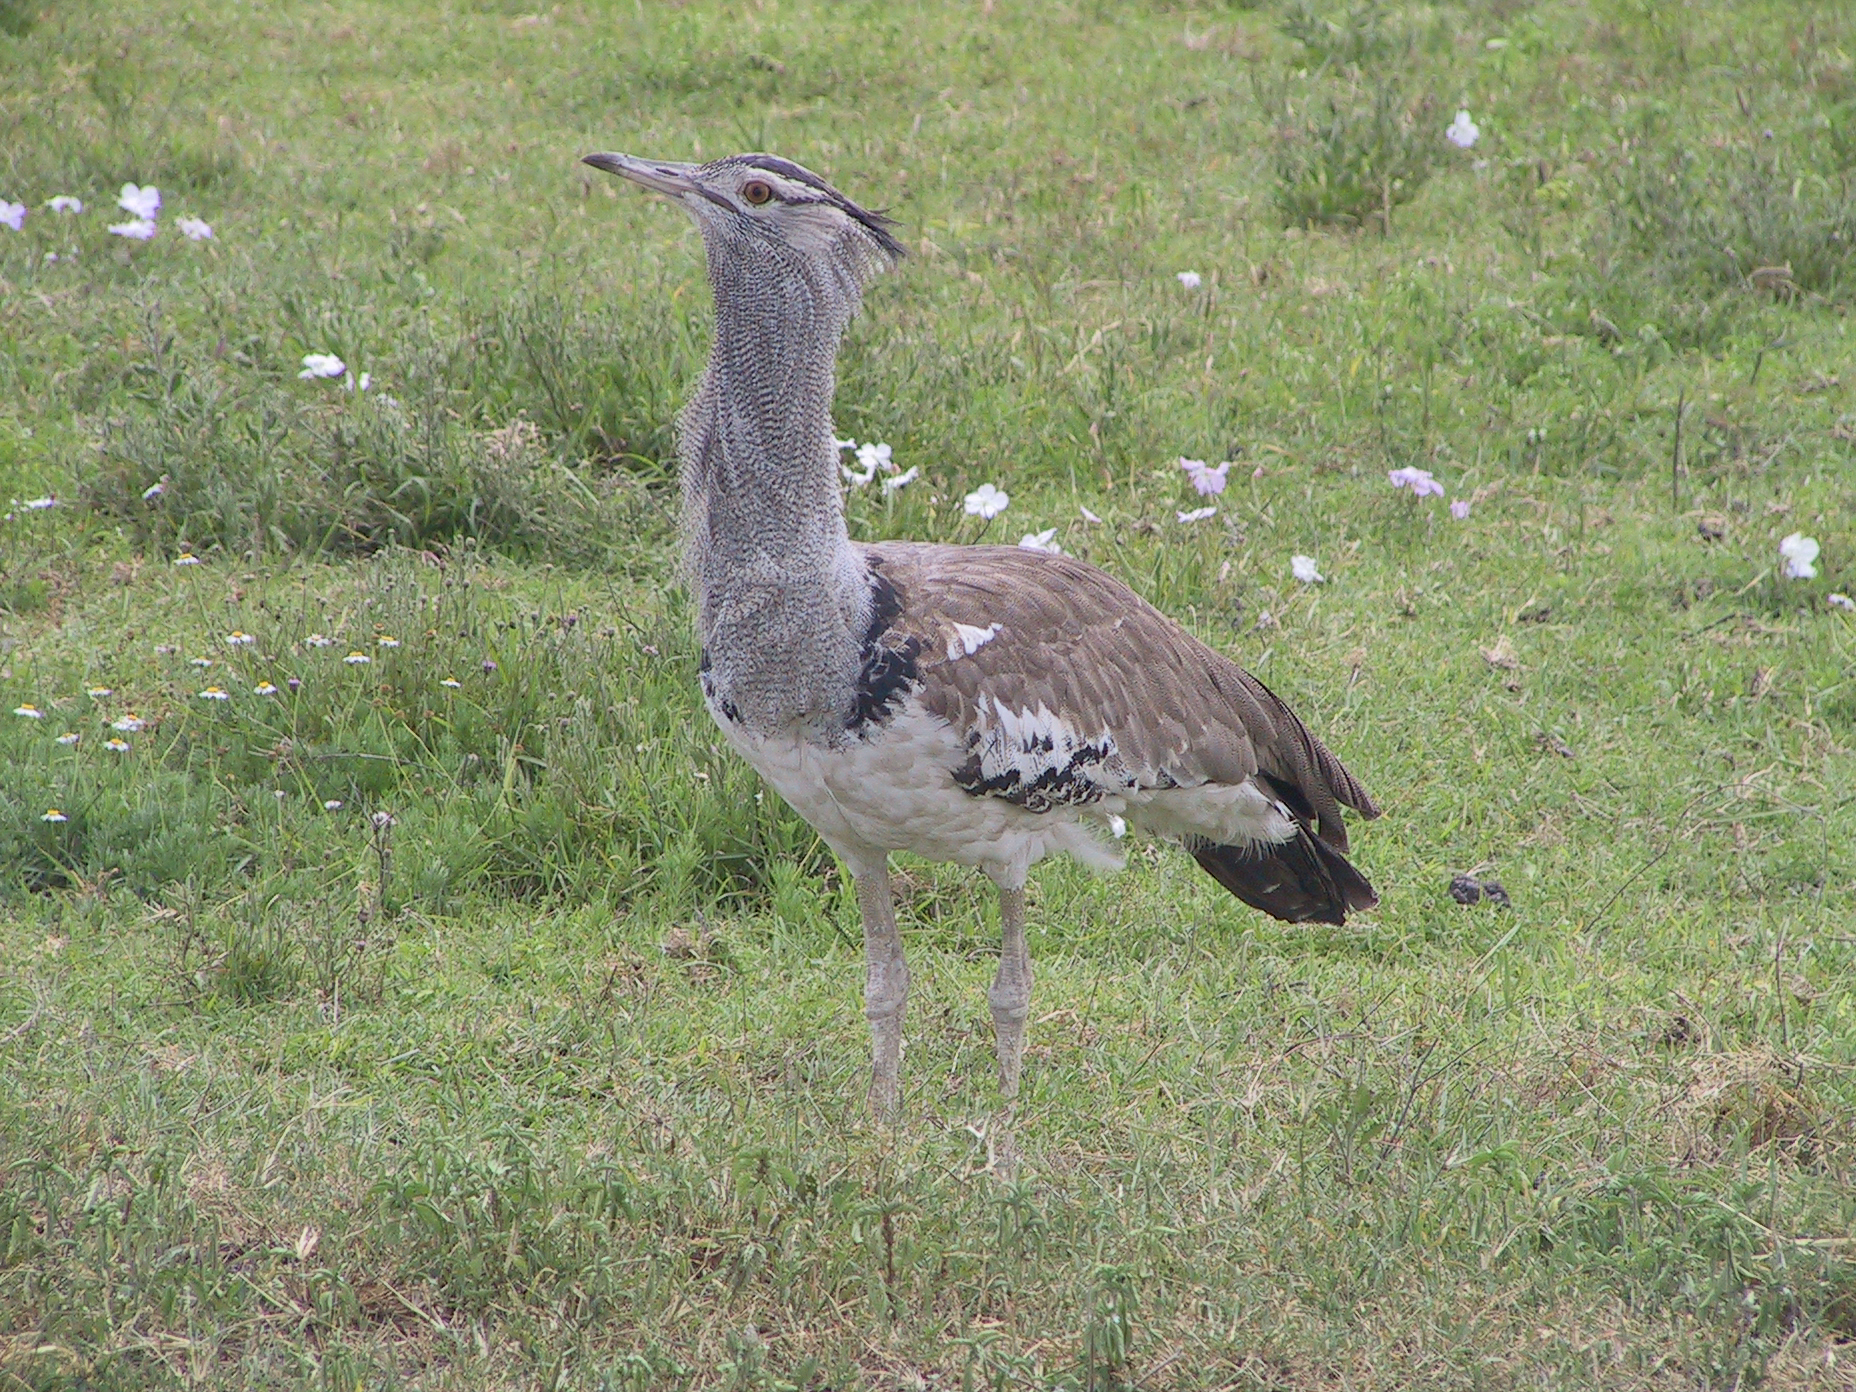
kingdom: Animalia
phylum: Chordata
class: Aves
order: Otidiformes
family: Otididae
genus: Ardeotis
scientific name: Ardeotis kori
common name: Kori bustard
